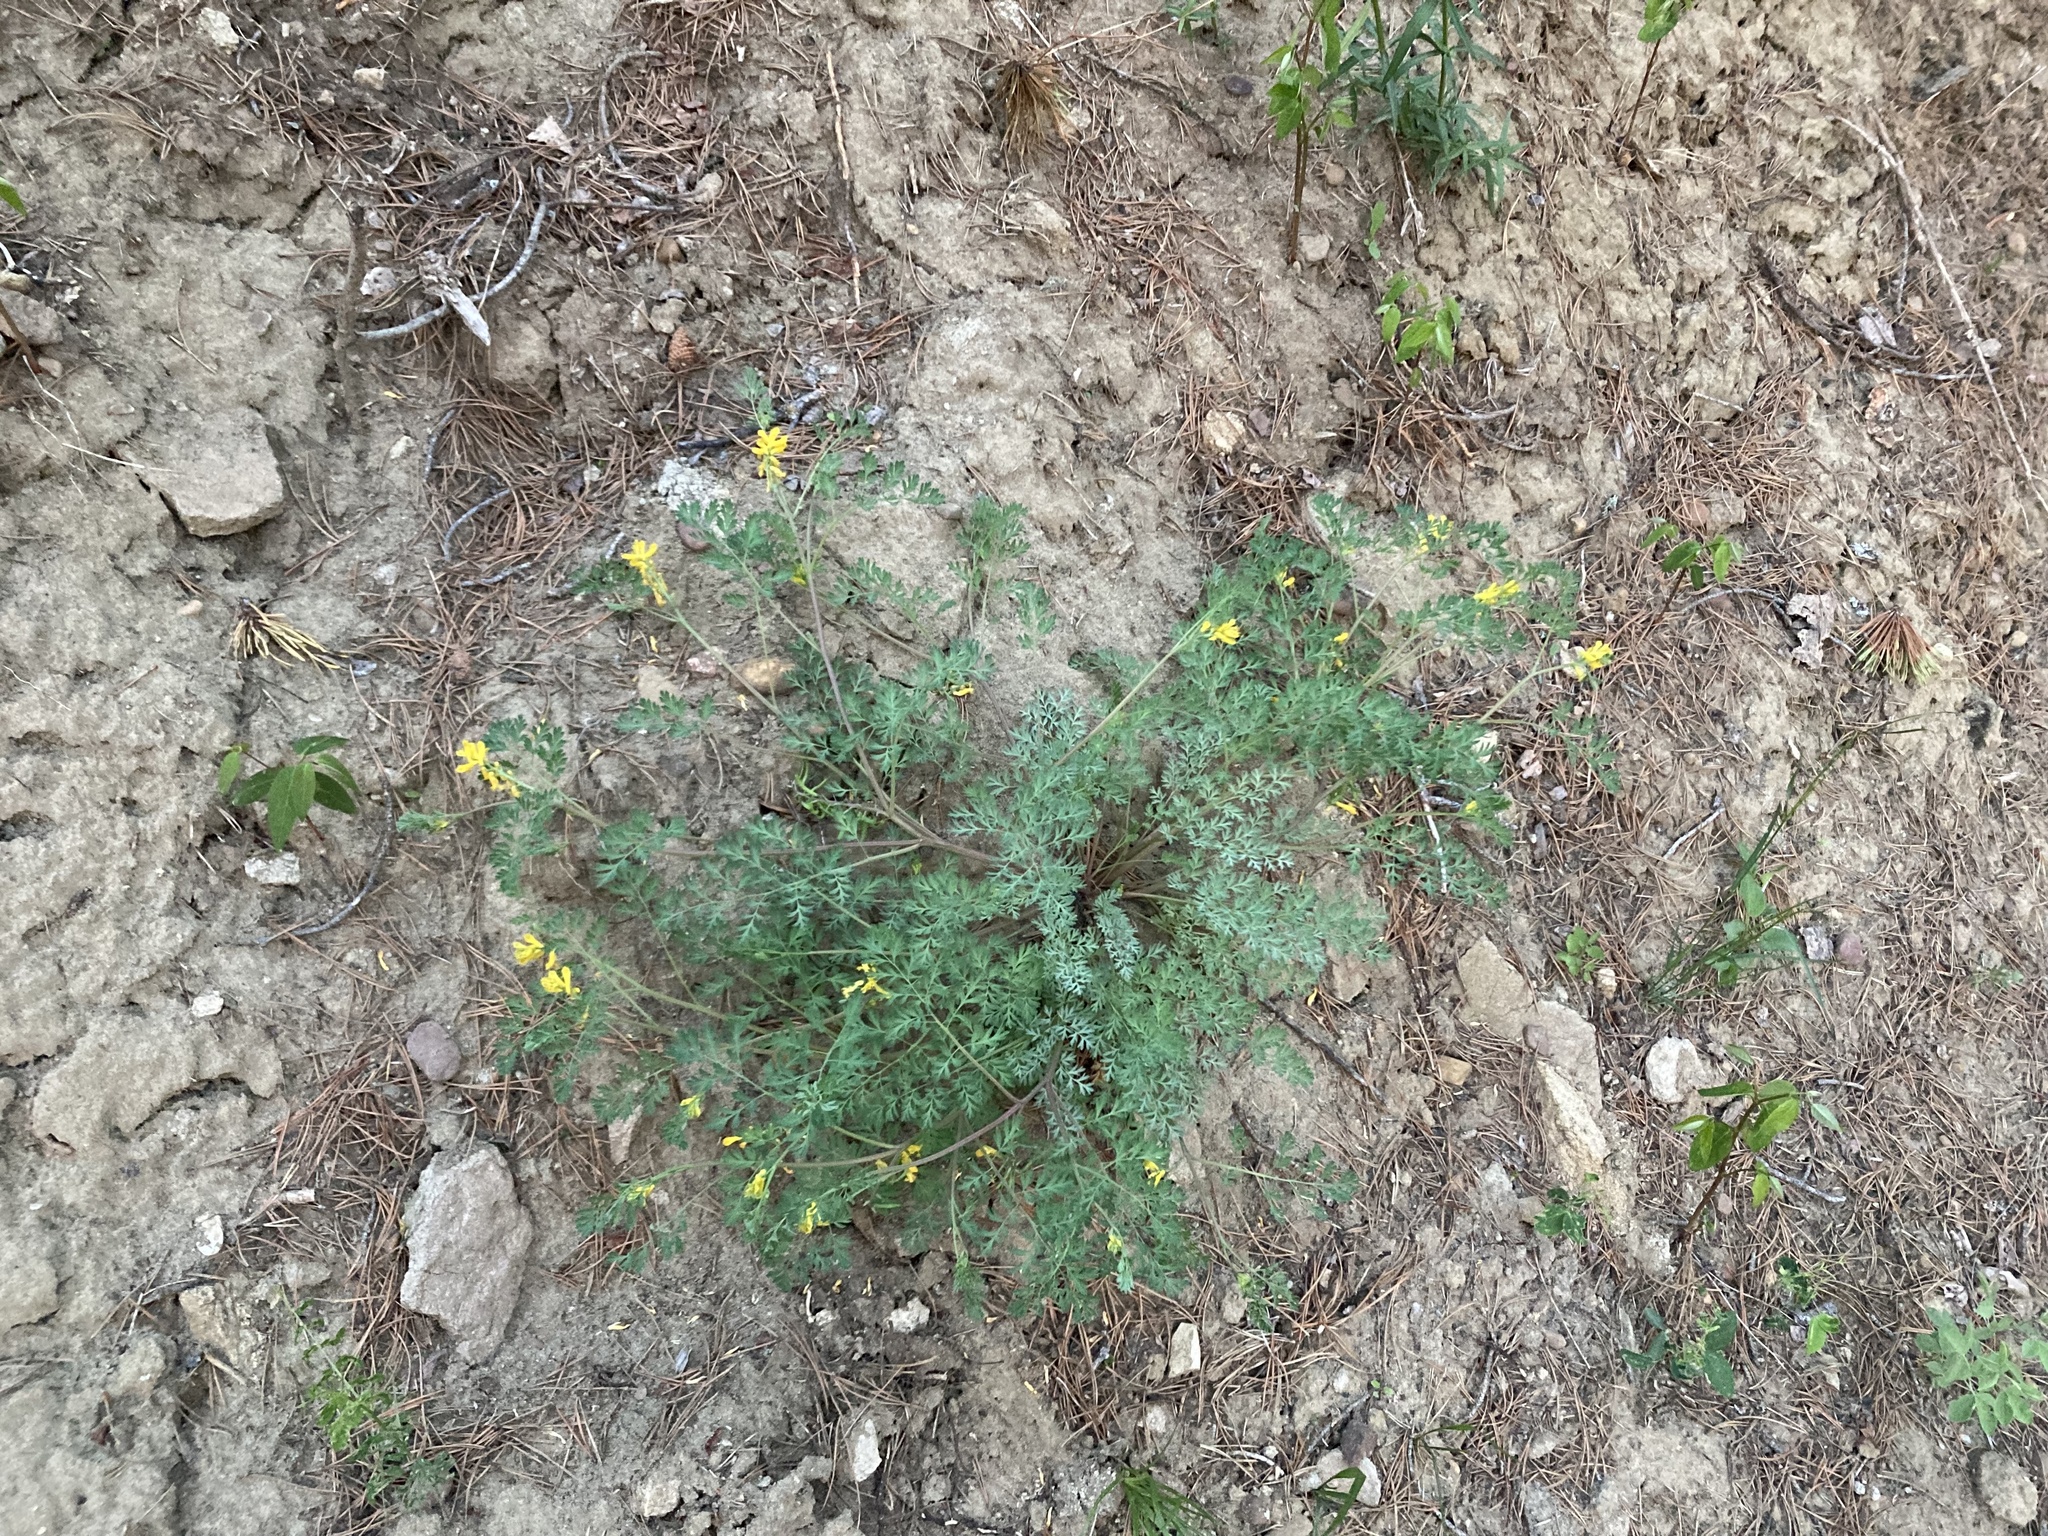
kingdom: Plantae
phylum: Tracheophyta
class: Magnoliopsida
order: Ranunculales
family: Papaveraceae
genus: Corydalis
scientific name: Corydalis aurea
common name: Golden corydalis
